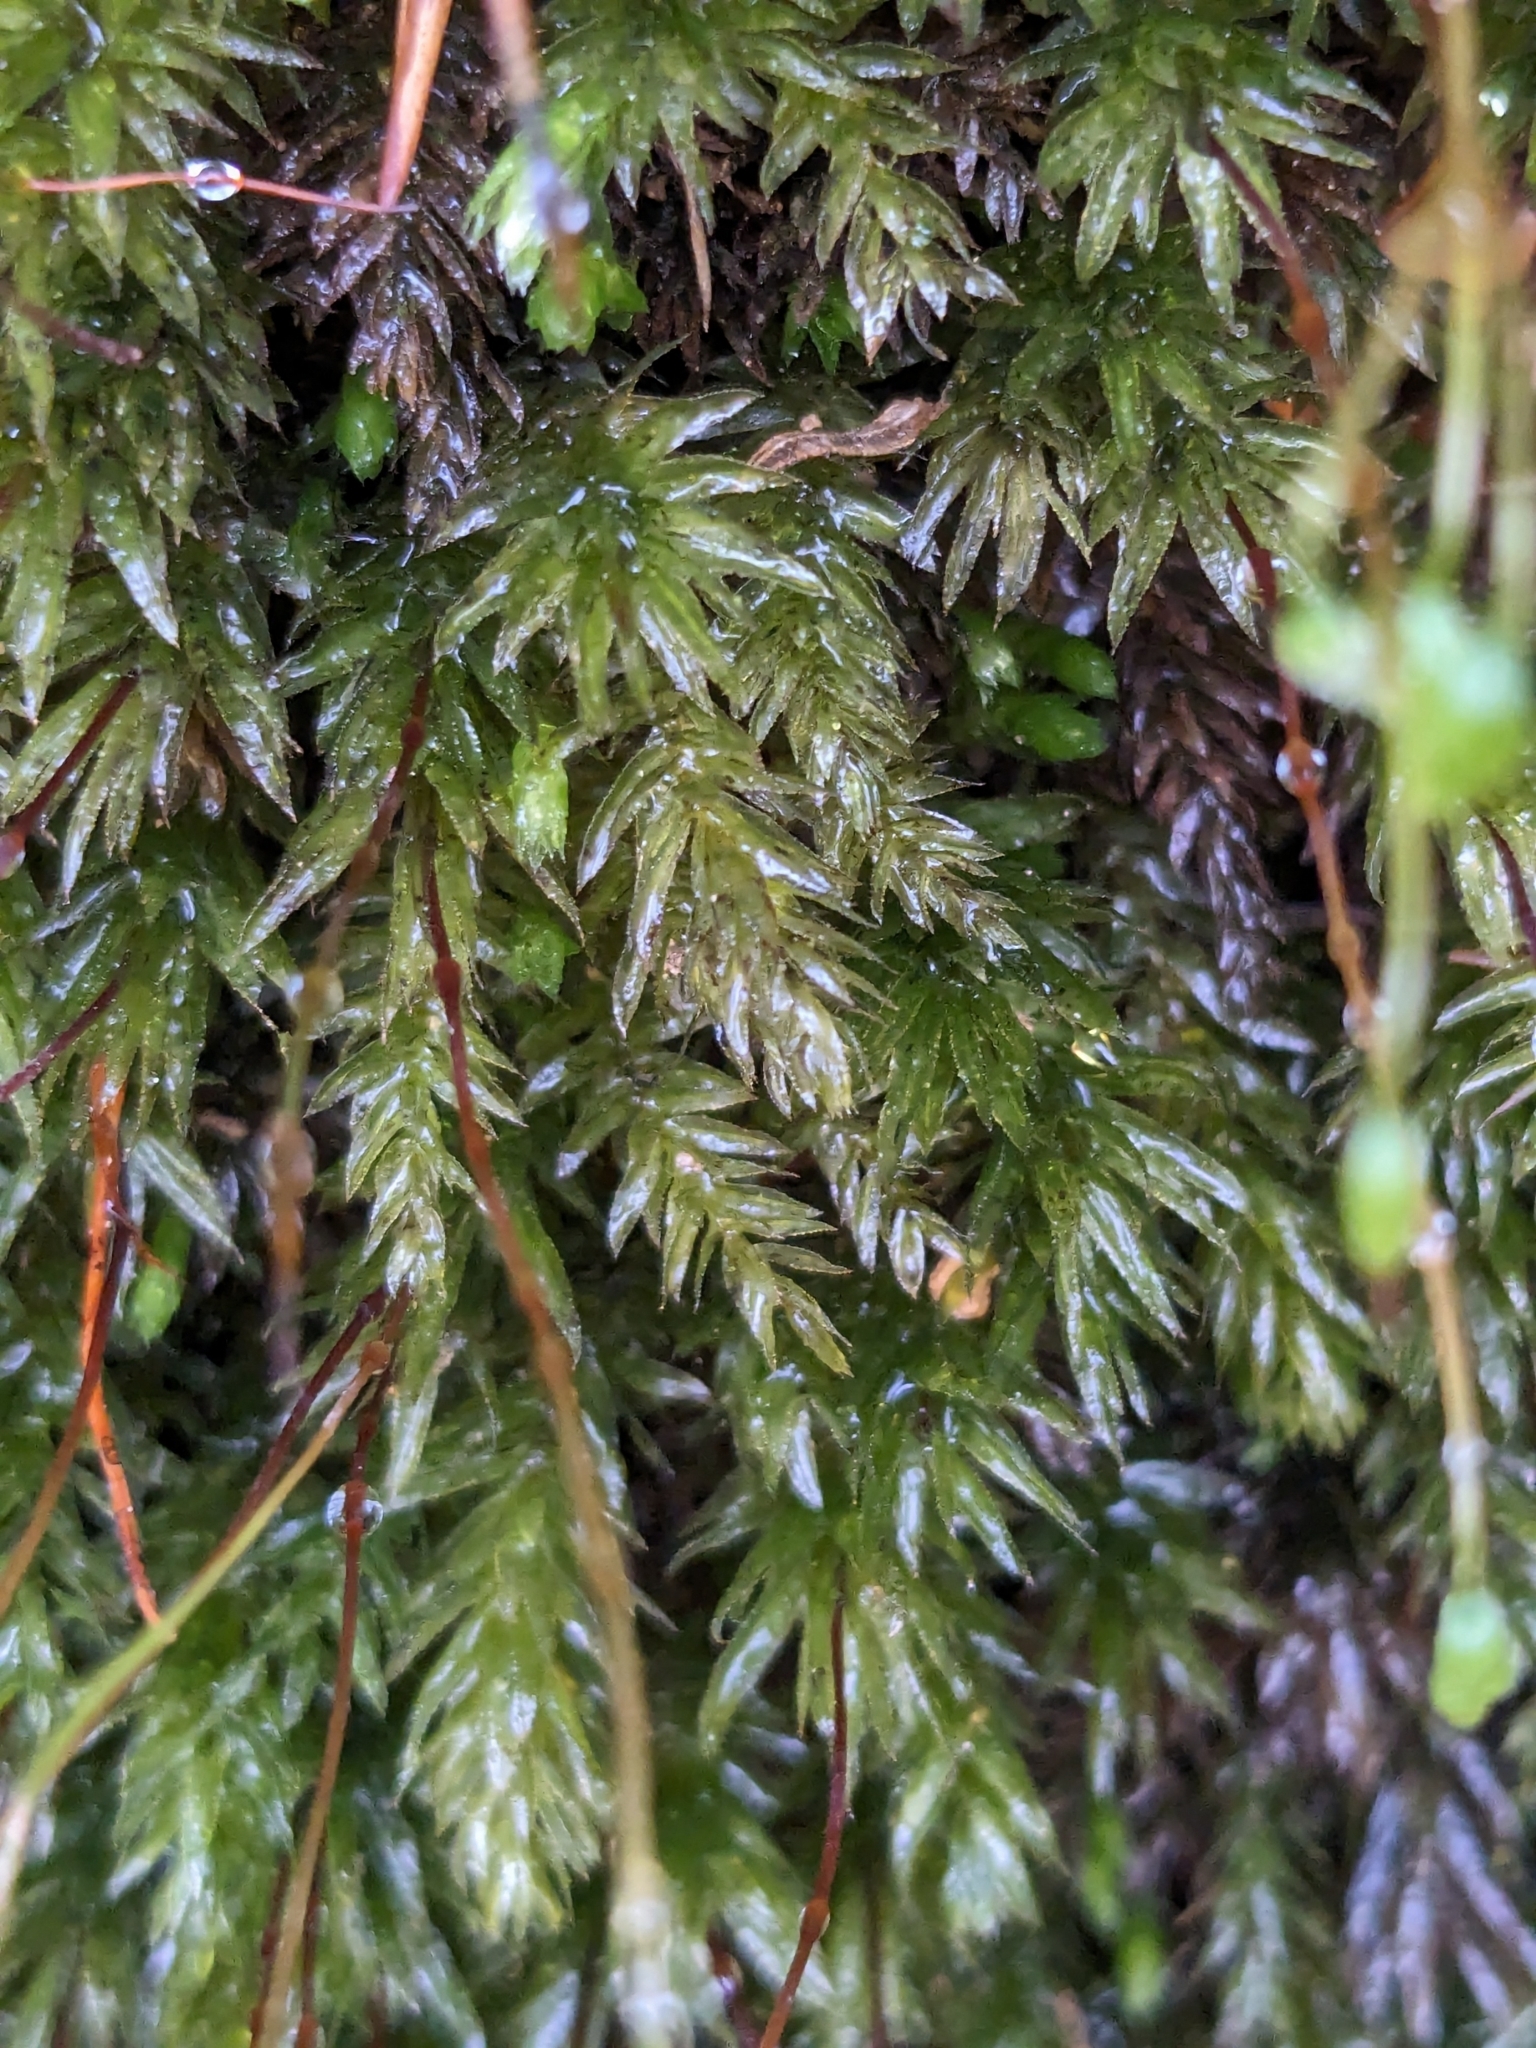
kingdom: Plantae
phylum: Bryophyta
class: Bryopsida
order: Bryales
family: Mniaceae
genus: Mnium
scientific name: Mnium hornum
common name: Swan's-neck leafy moss
